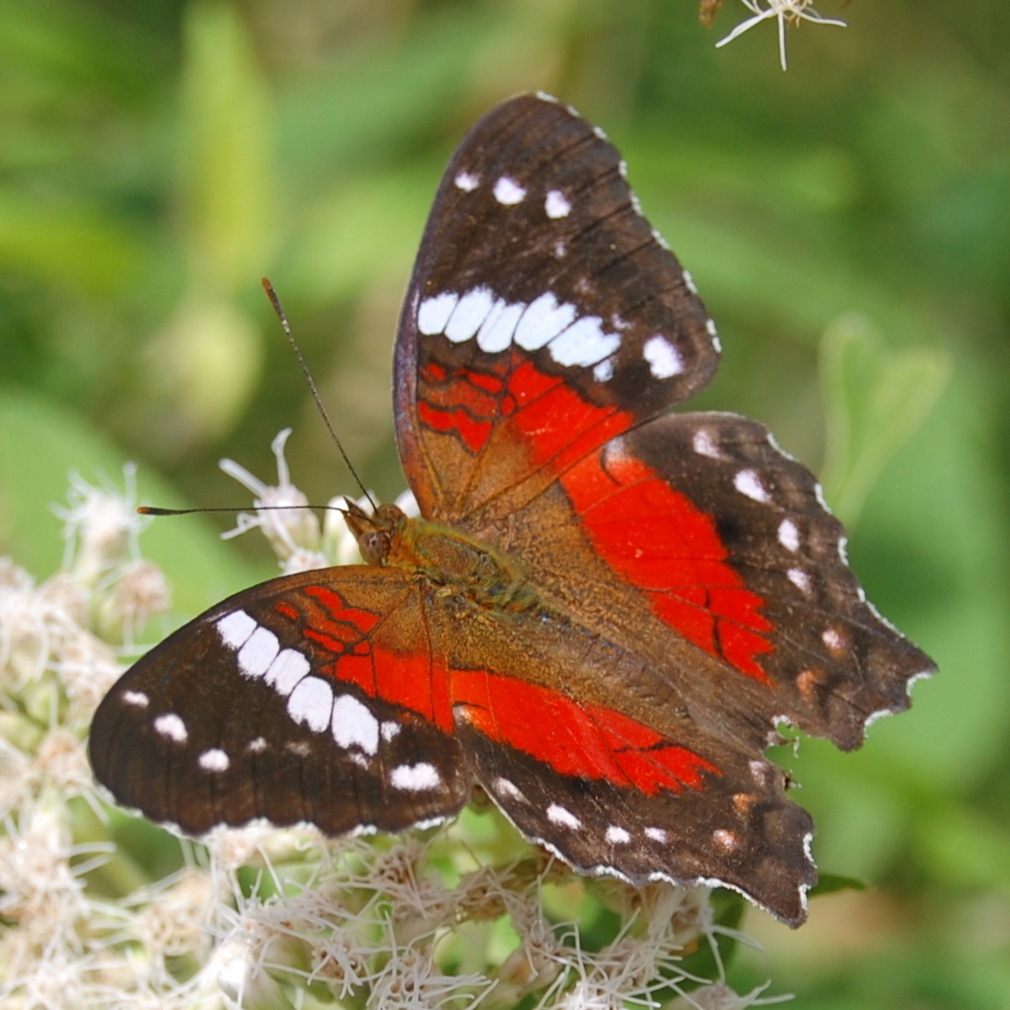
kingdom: Animalia
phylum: Arthropoda
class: Insecta
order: Lepidoptera
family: Nymphalidae
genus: Anartia
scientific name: Anartia amathea
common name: Red peacock
